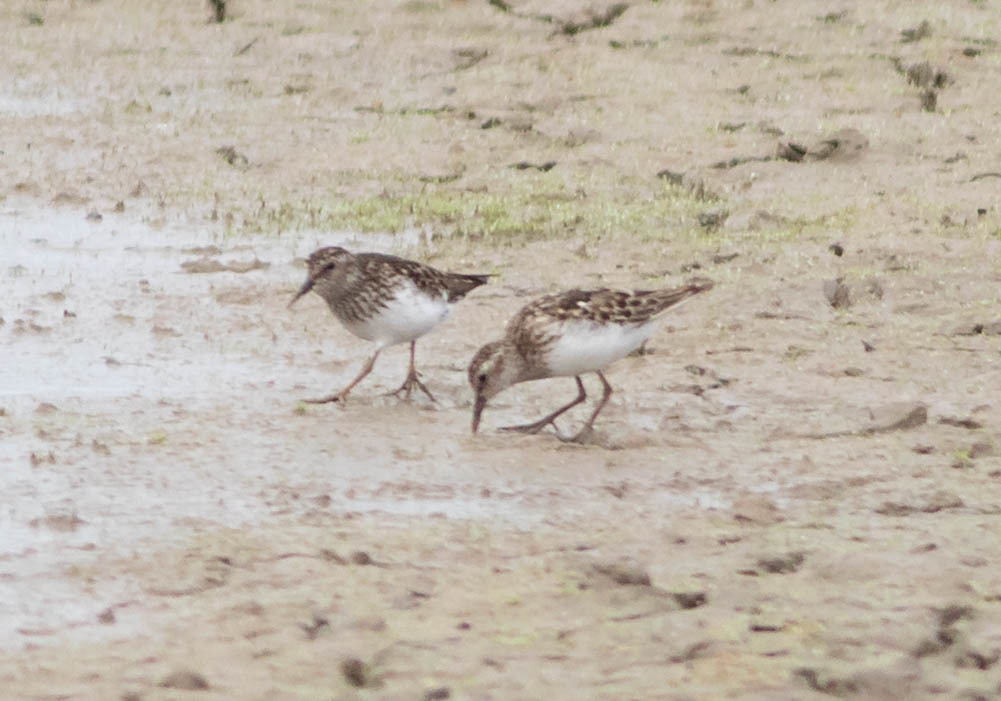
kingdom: Animalia
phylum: Chordata
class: Aves
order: Charadriiformes
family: Scolopacidae
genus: Calidris
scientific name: Calidris minutilla
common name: Least sandpiper
